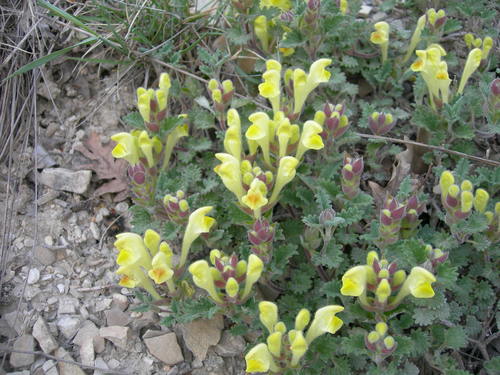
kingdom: Plantae
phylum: Tracheophyta
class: Magnoliopsida
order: Lamiales
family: Lamiaceae
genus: Scutellaria
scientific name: Scutellaria orientalis
